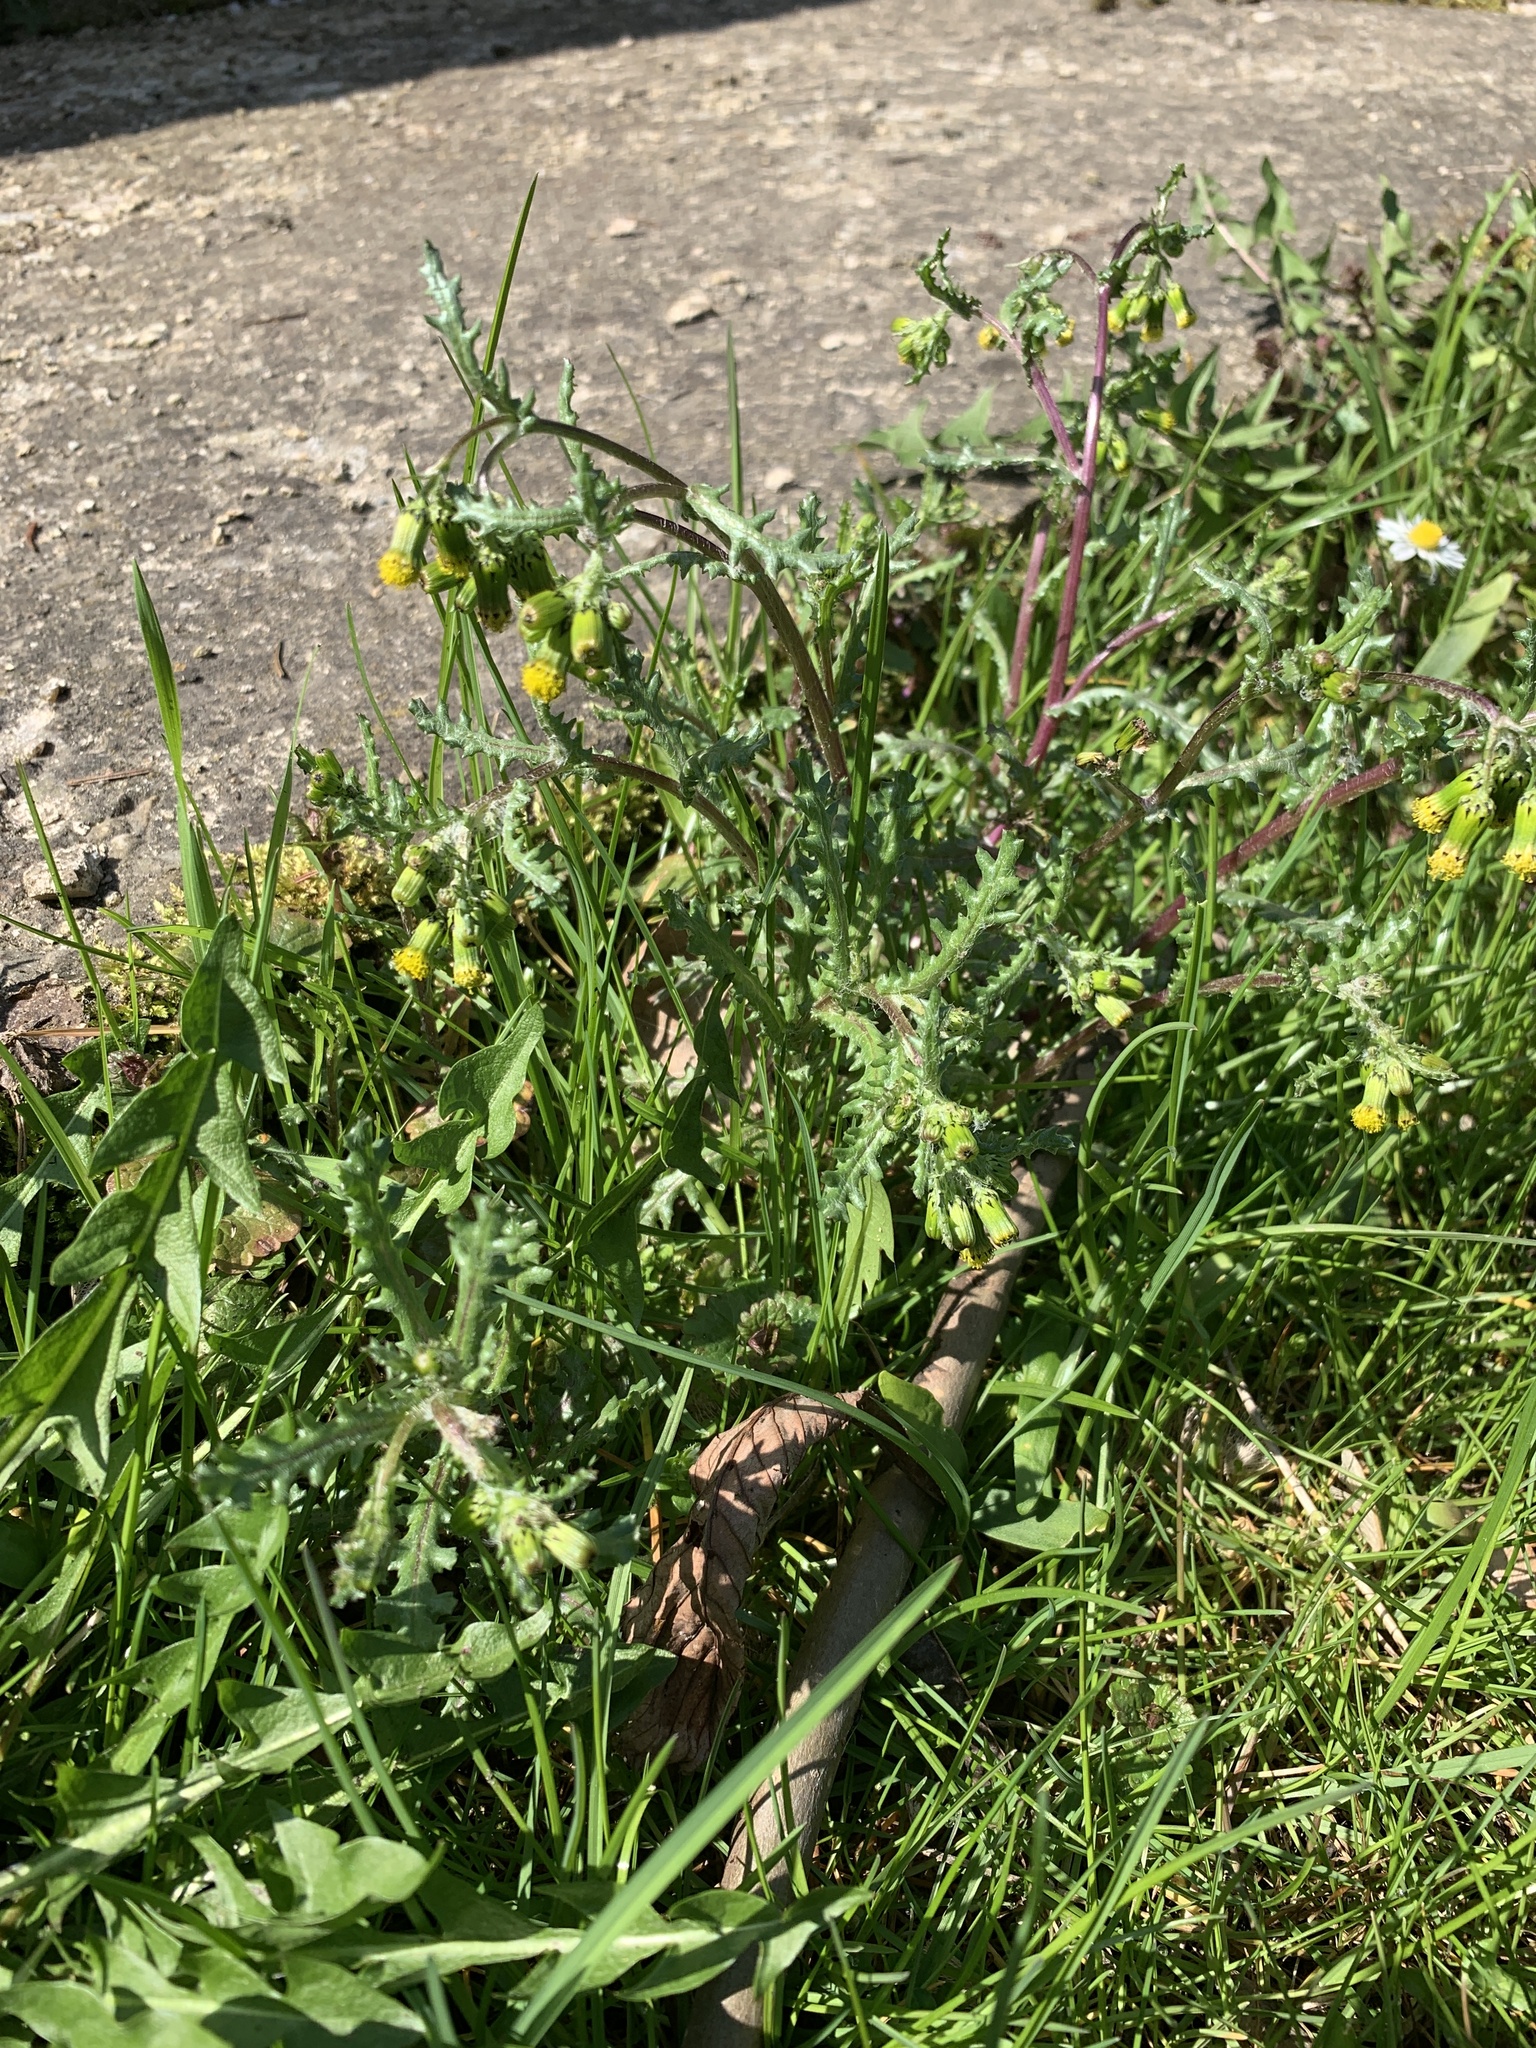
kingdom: Plantae
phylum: Tracheophyta
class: Magnoliopsida
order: Asterales
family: Asteraceae
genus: Senecio
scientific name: Senecio vulgaris
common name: Old-man-in-the-spring
